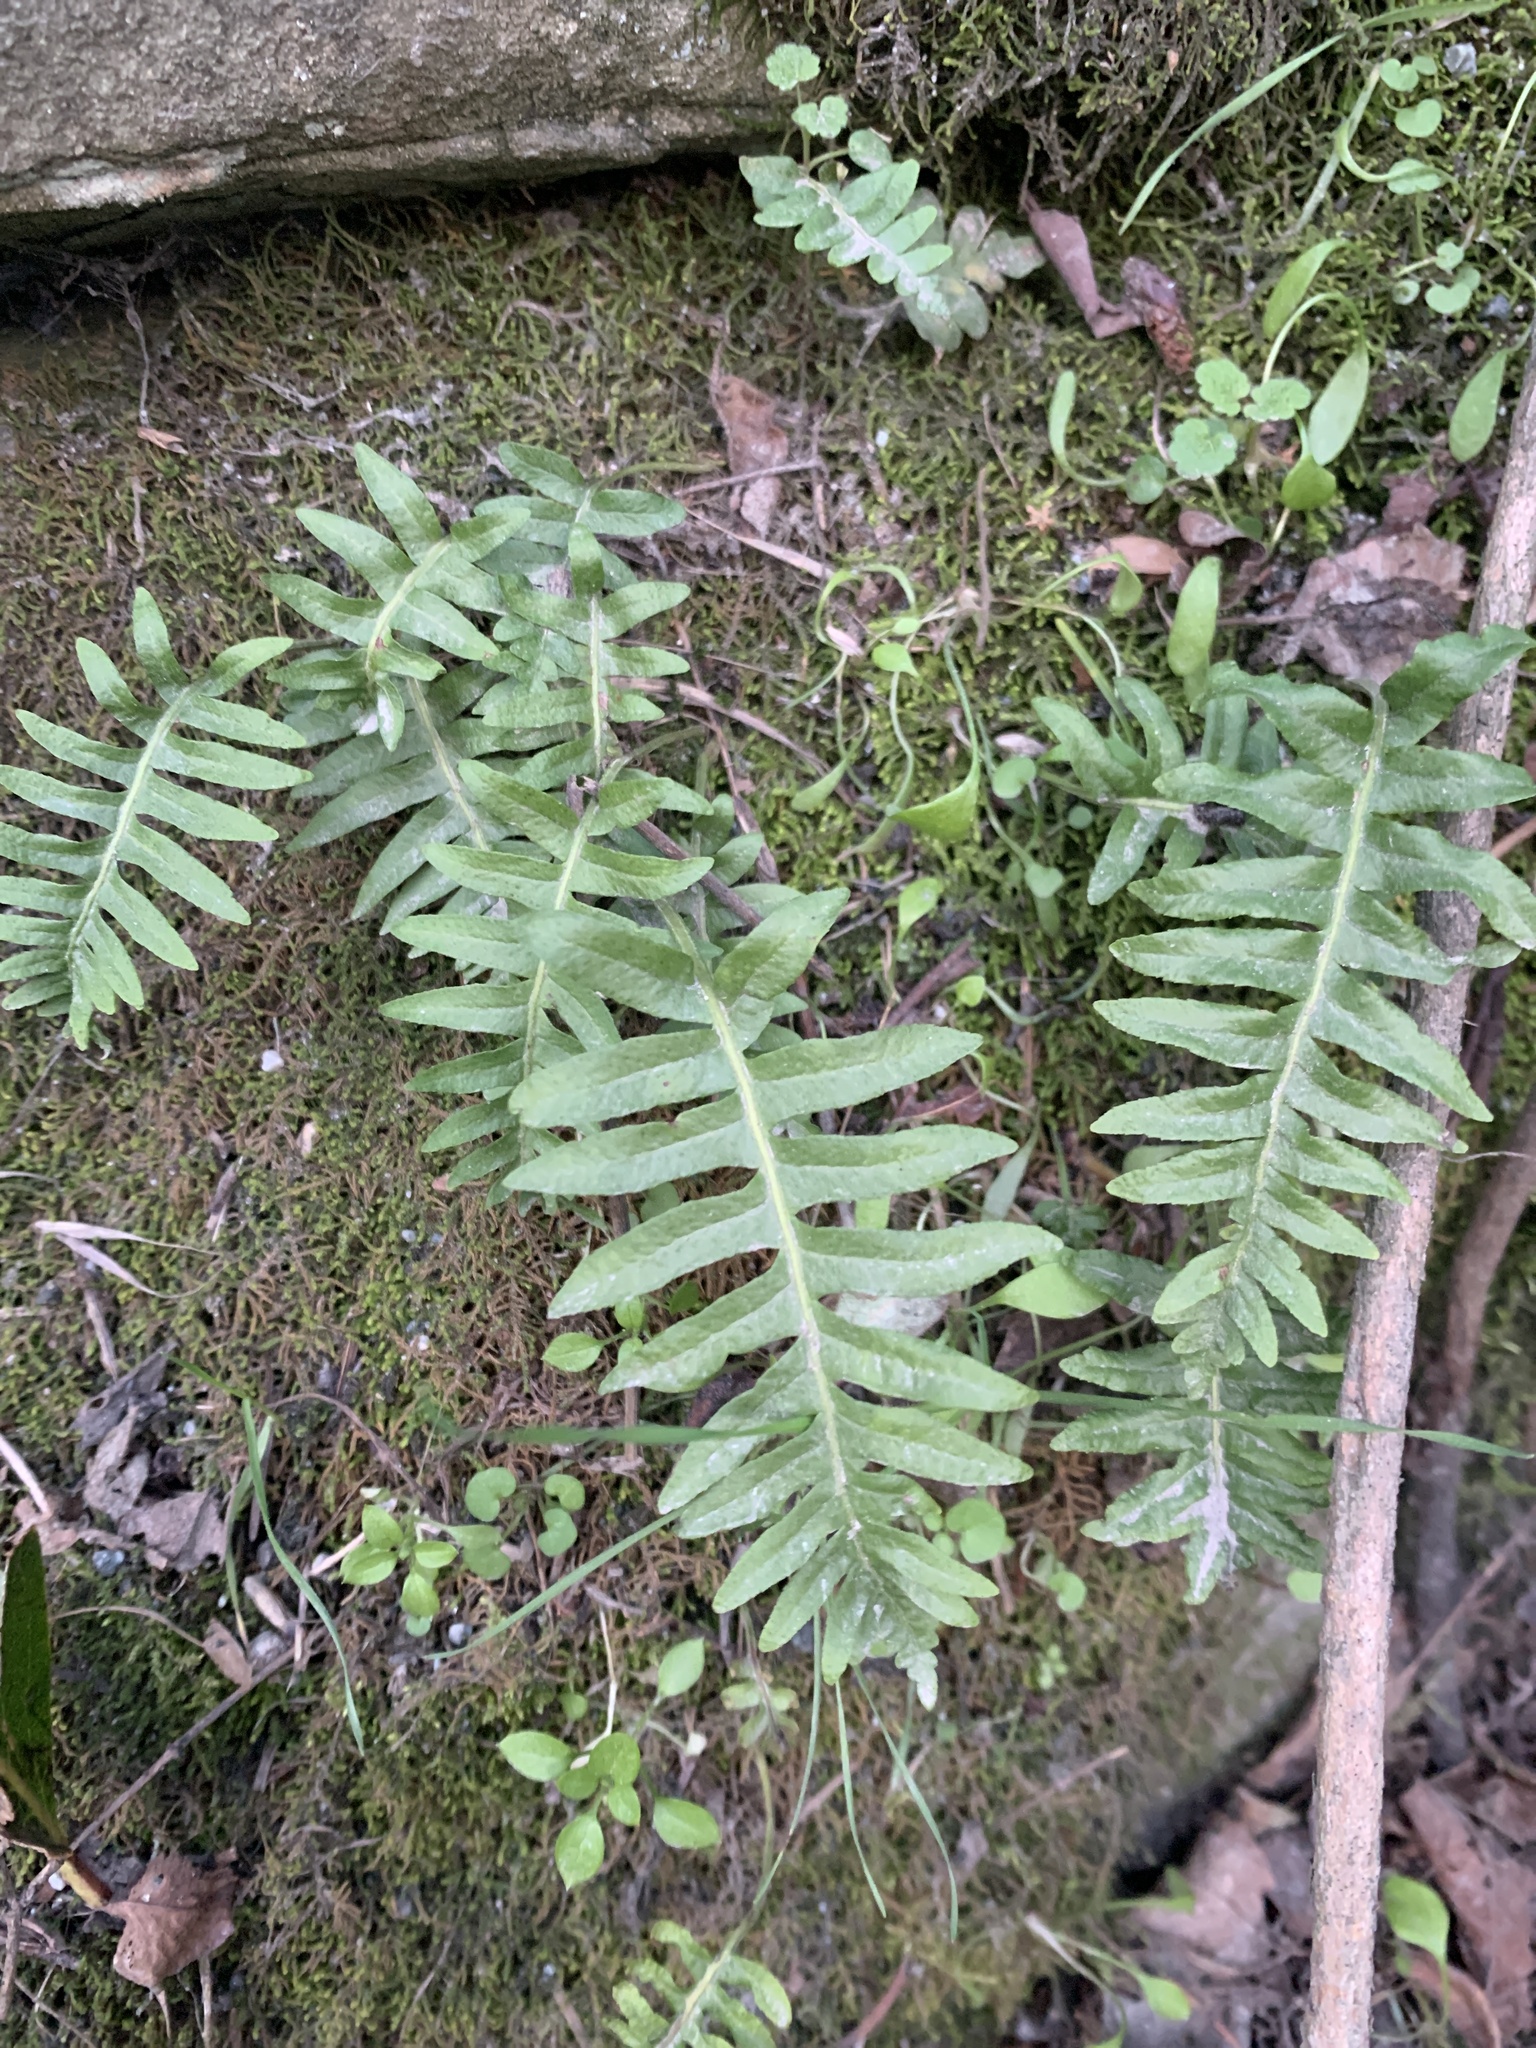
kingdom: Plantae
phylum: Tracheophyta
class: Polypodiopsida
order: Polypodiales
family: Polypodiaceae
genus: Polypodium
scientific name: Polypodium glycyrrhiza
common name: Licorice fern
